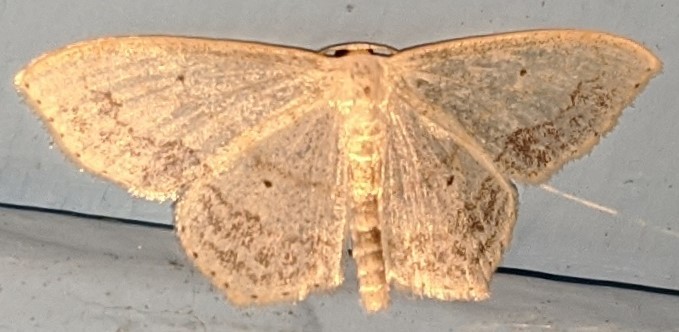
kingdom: Animalia
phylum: Arthropoda
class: Insecta
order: Lepidoptera
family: Geometridae
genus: Scopula
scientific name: Scopula limboundata
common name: Large lace border
